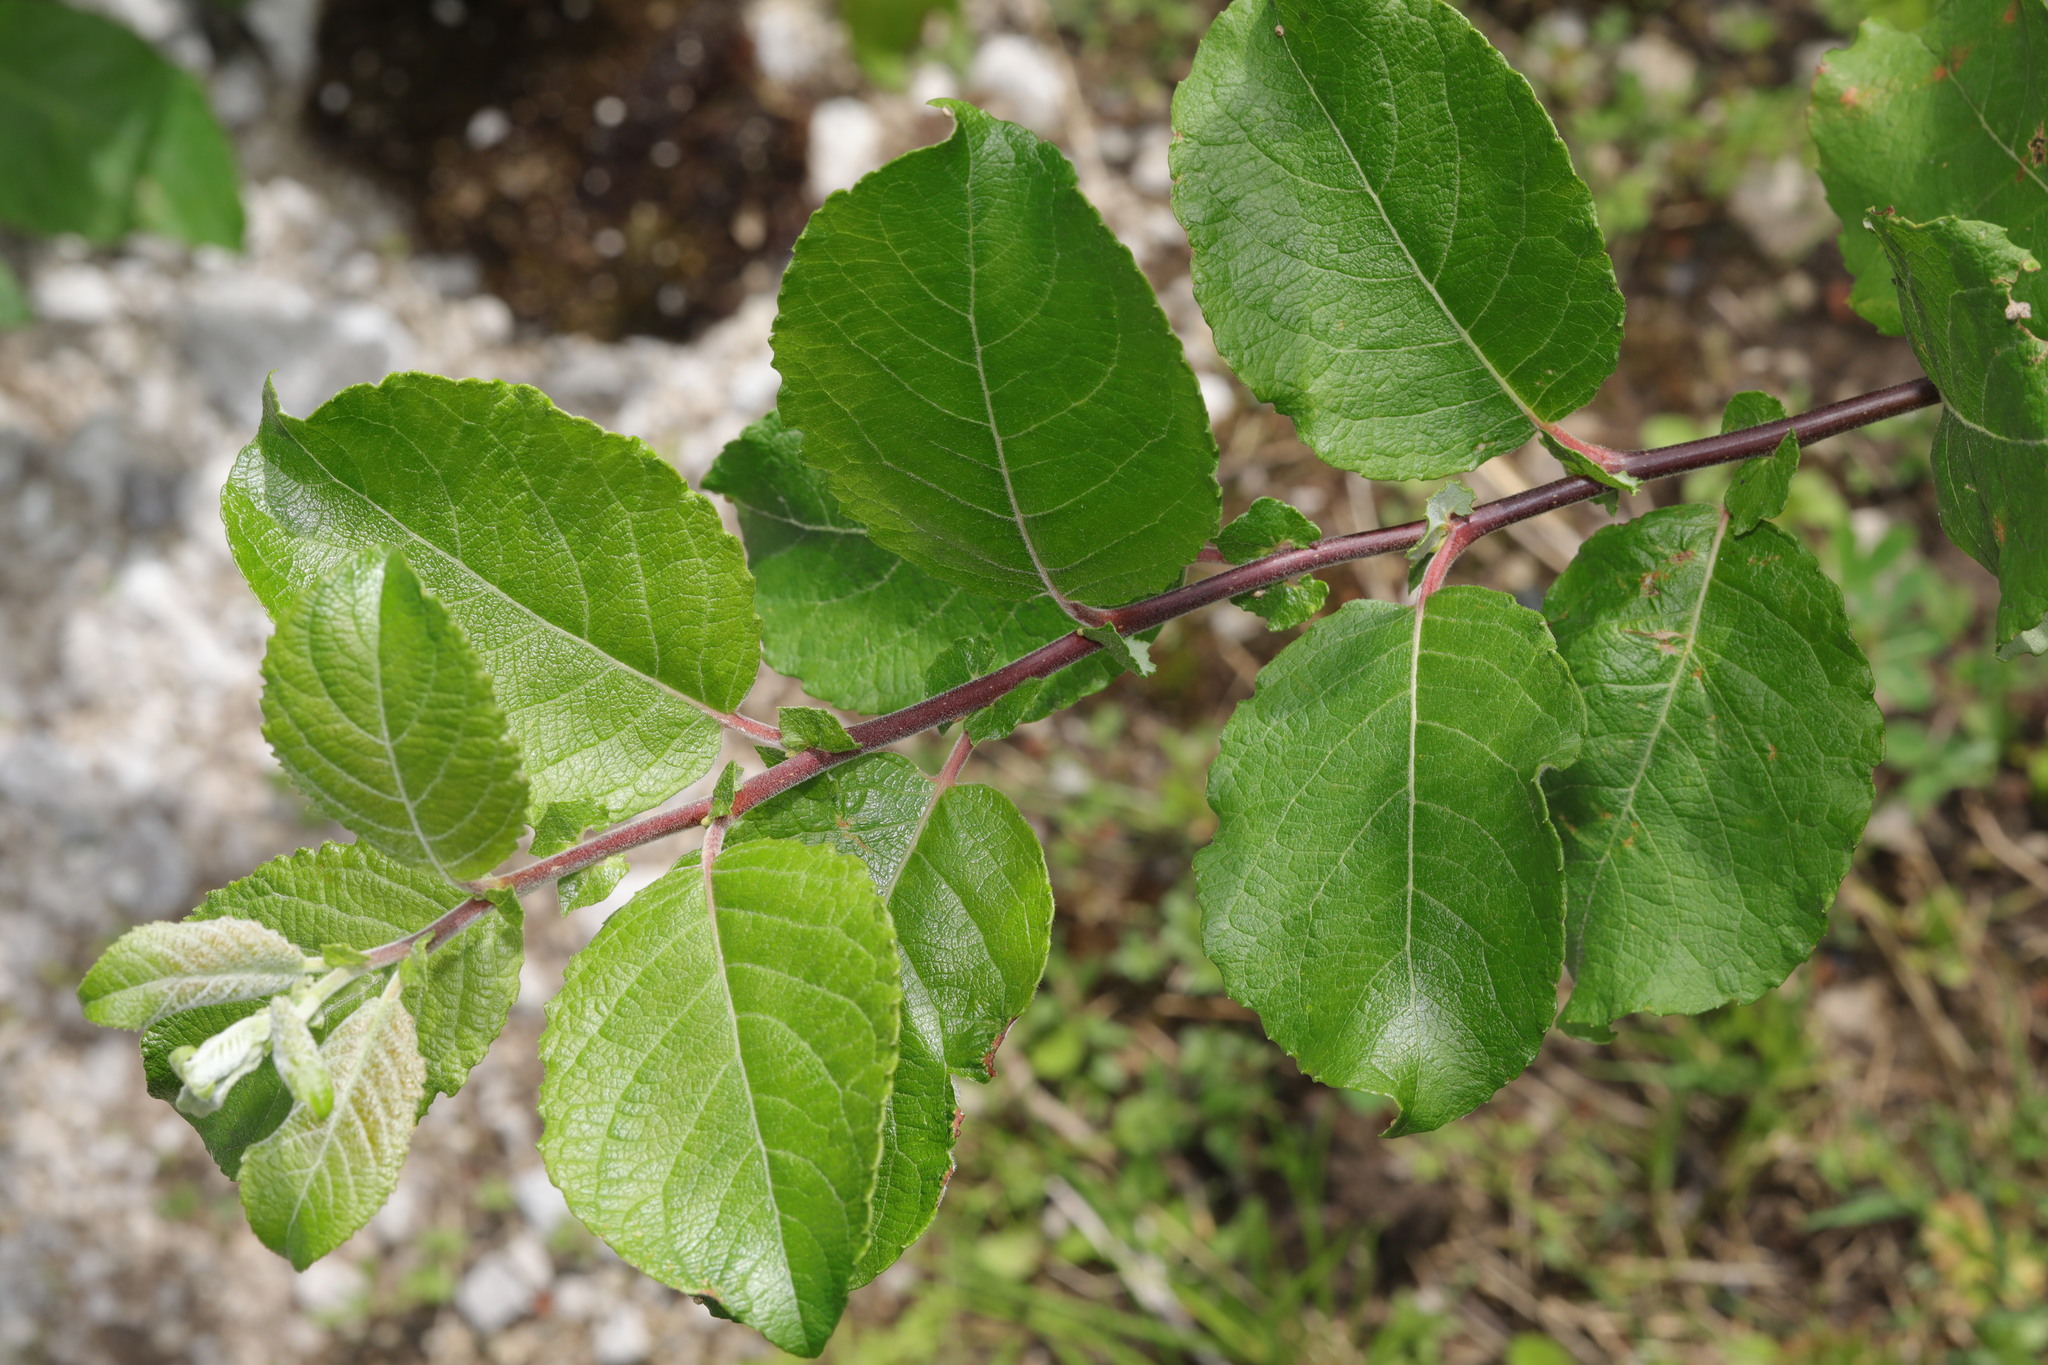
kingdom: Plantae
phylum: Tracheophyta
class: Magnoliopsida
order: Malpighiales
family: Salicaceae
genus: Salix
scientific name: Salix caprea
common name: Goat willow
